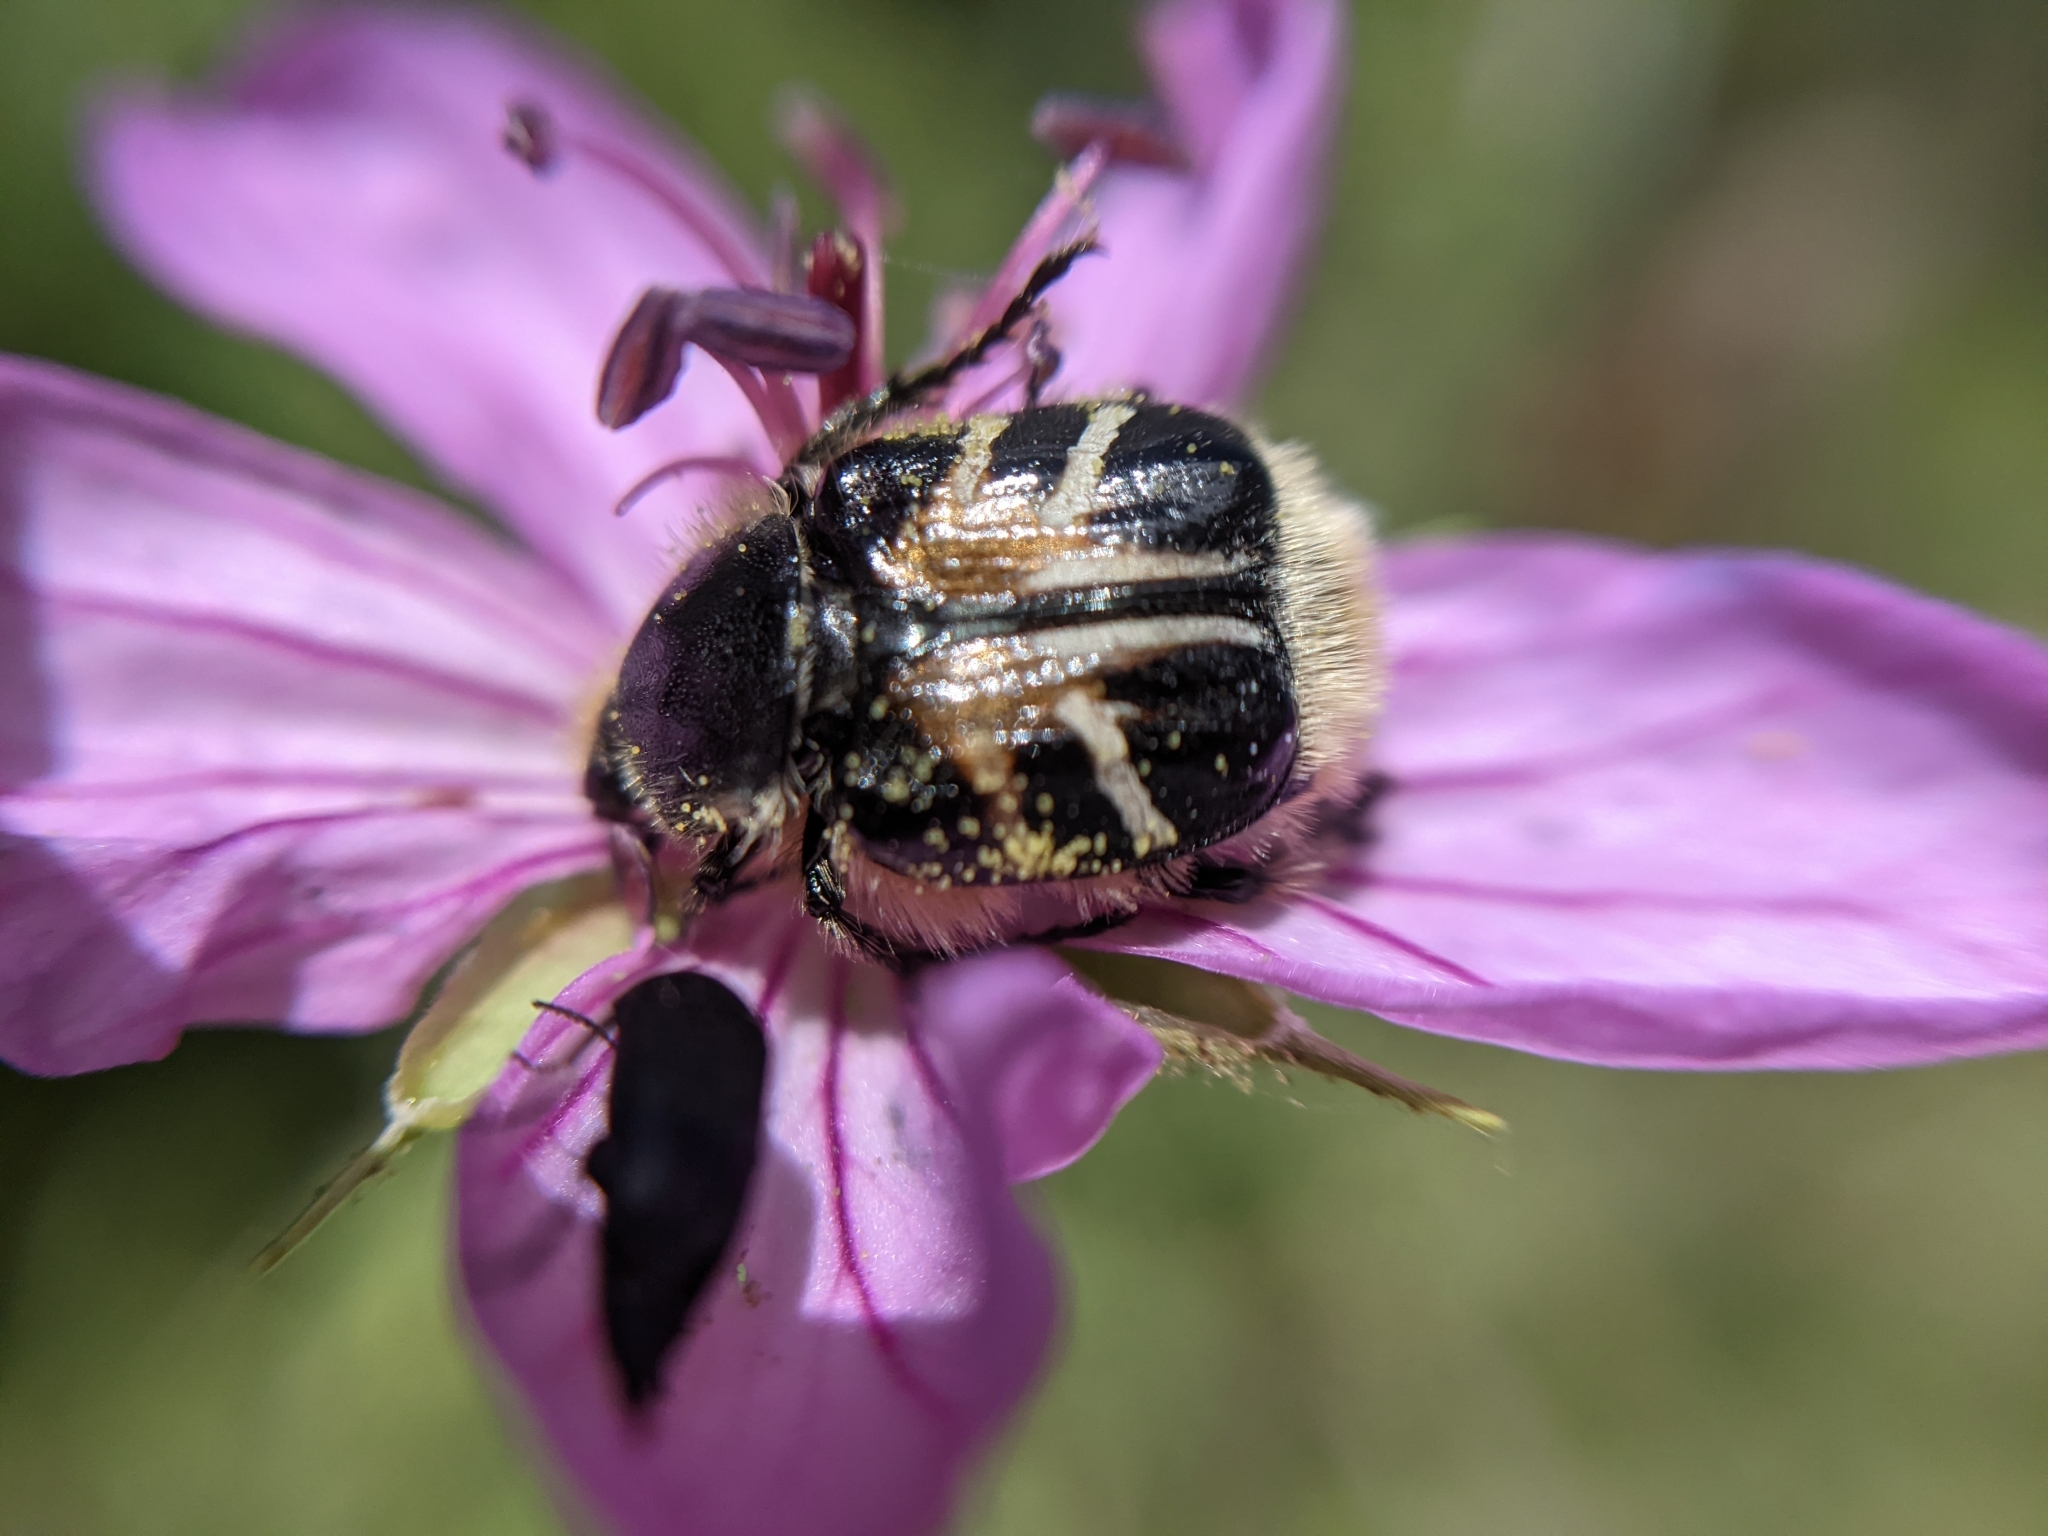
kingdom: Animalia
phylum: Arthropoda
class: Insecta
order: Coleoptera
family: Scarabaeidae
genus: Trichiotinus
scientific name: Trichiotinus assimilis
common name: Bee-mimic beetle
